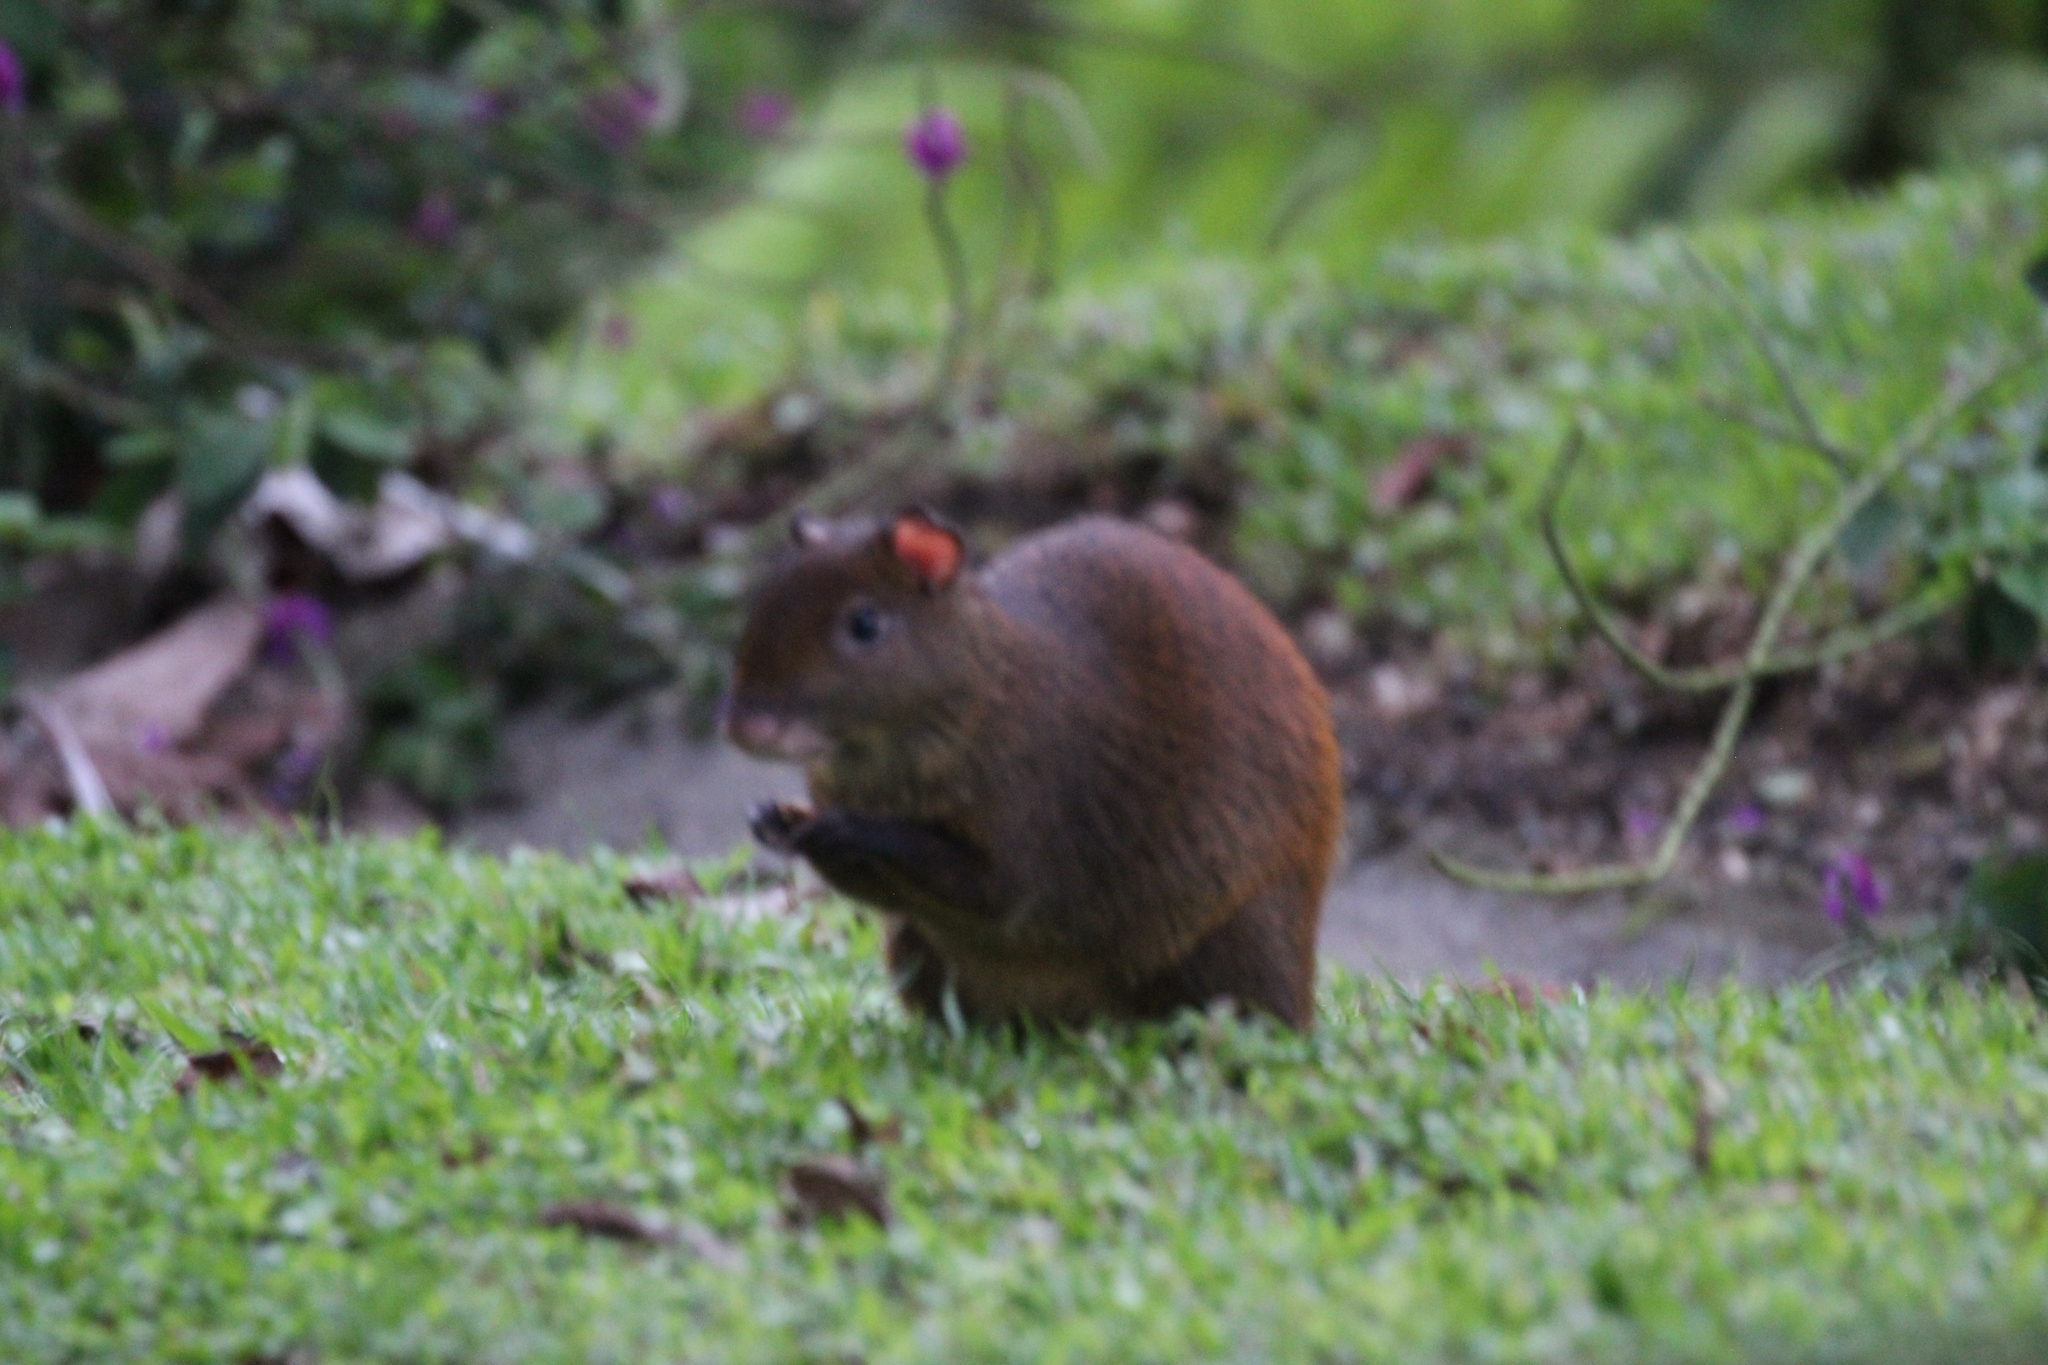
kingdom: Animalia
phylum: Chordata
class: Mammalia
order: Rodentia
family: Dasyproctidae
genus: Dasyprocta
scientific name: Dasyprocta punctata
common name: Central american agouti
